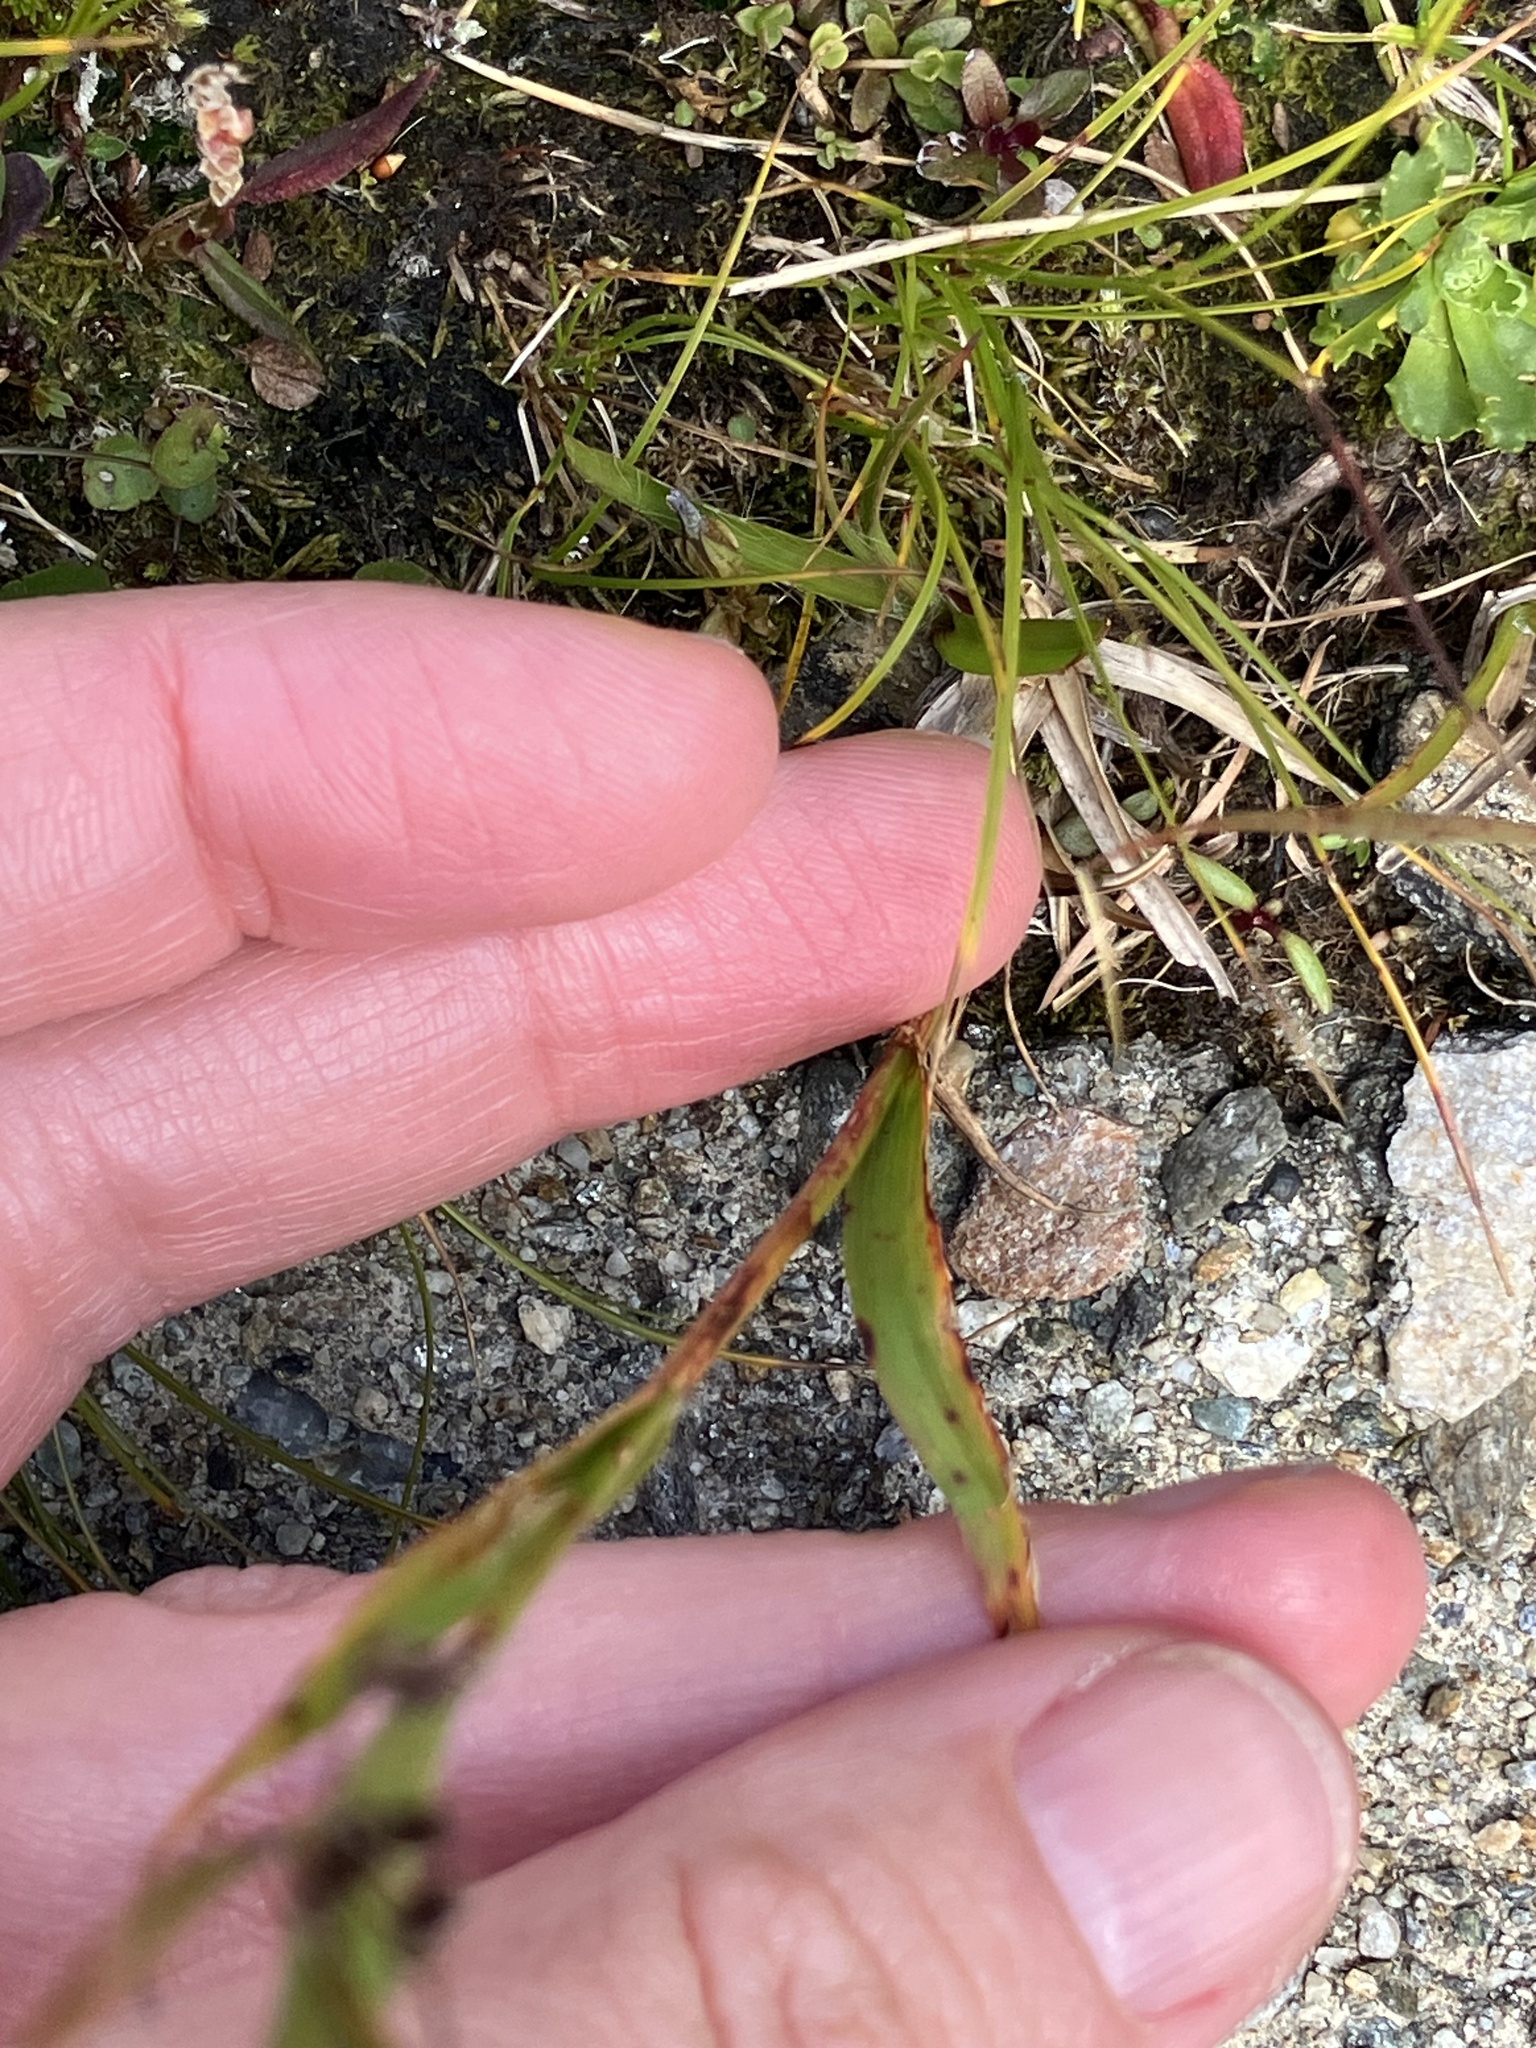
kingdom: Plantae
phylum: Tracheophyta
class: Liliopsida
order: Poales
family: Juncaceae
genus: Luzula
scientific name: Luzula alpinopilosa
